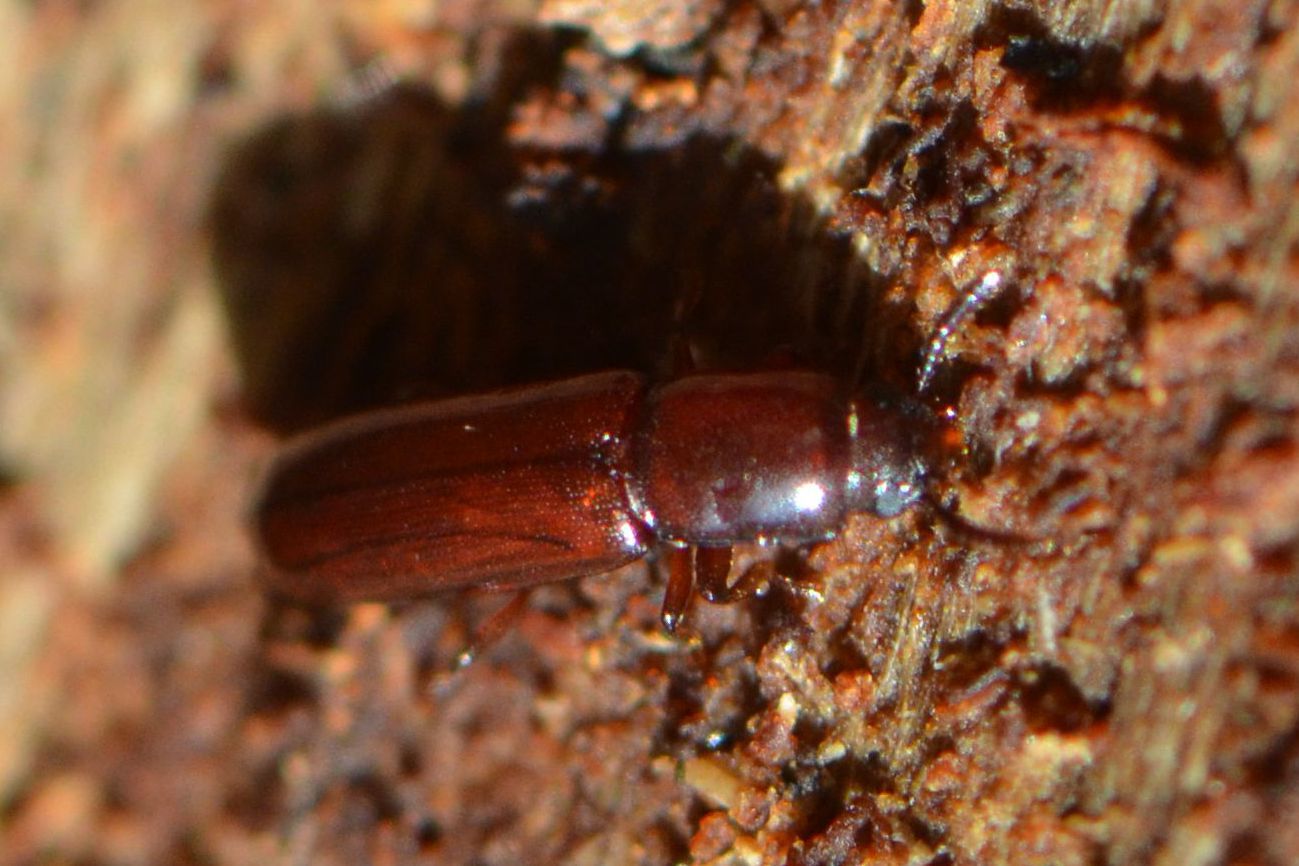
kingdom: Animalia
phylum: Arthropoda
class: Insecta
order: Coleoptera
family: Tenebrionidae
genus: Corticeus
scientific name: Corticeus unicolor
